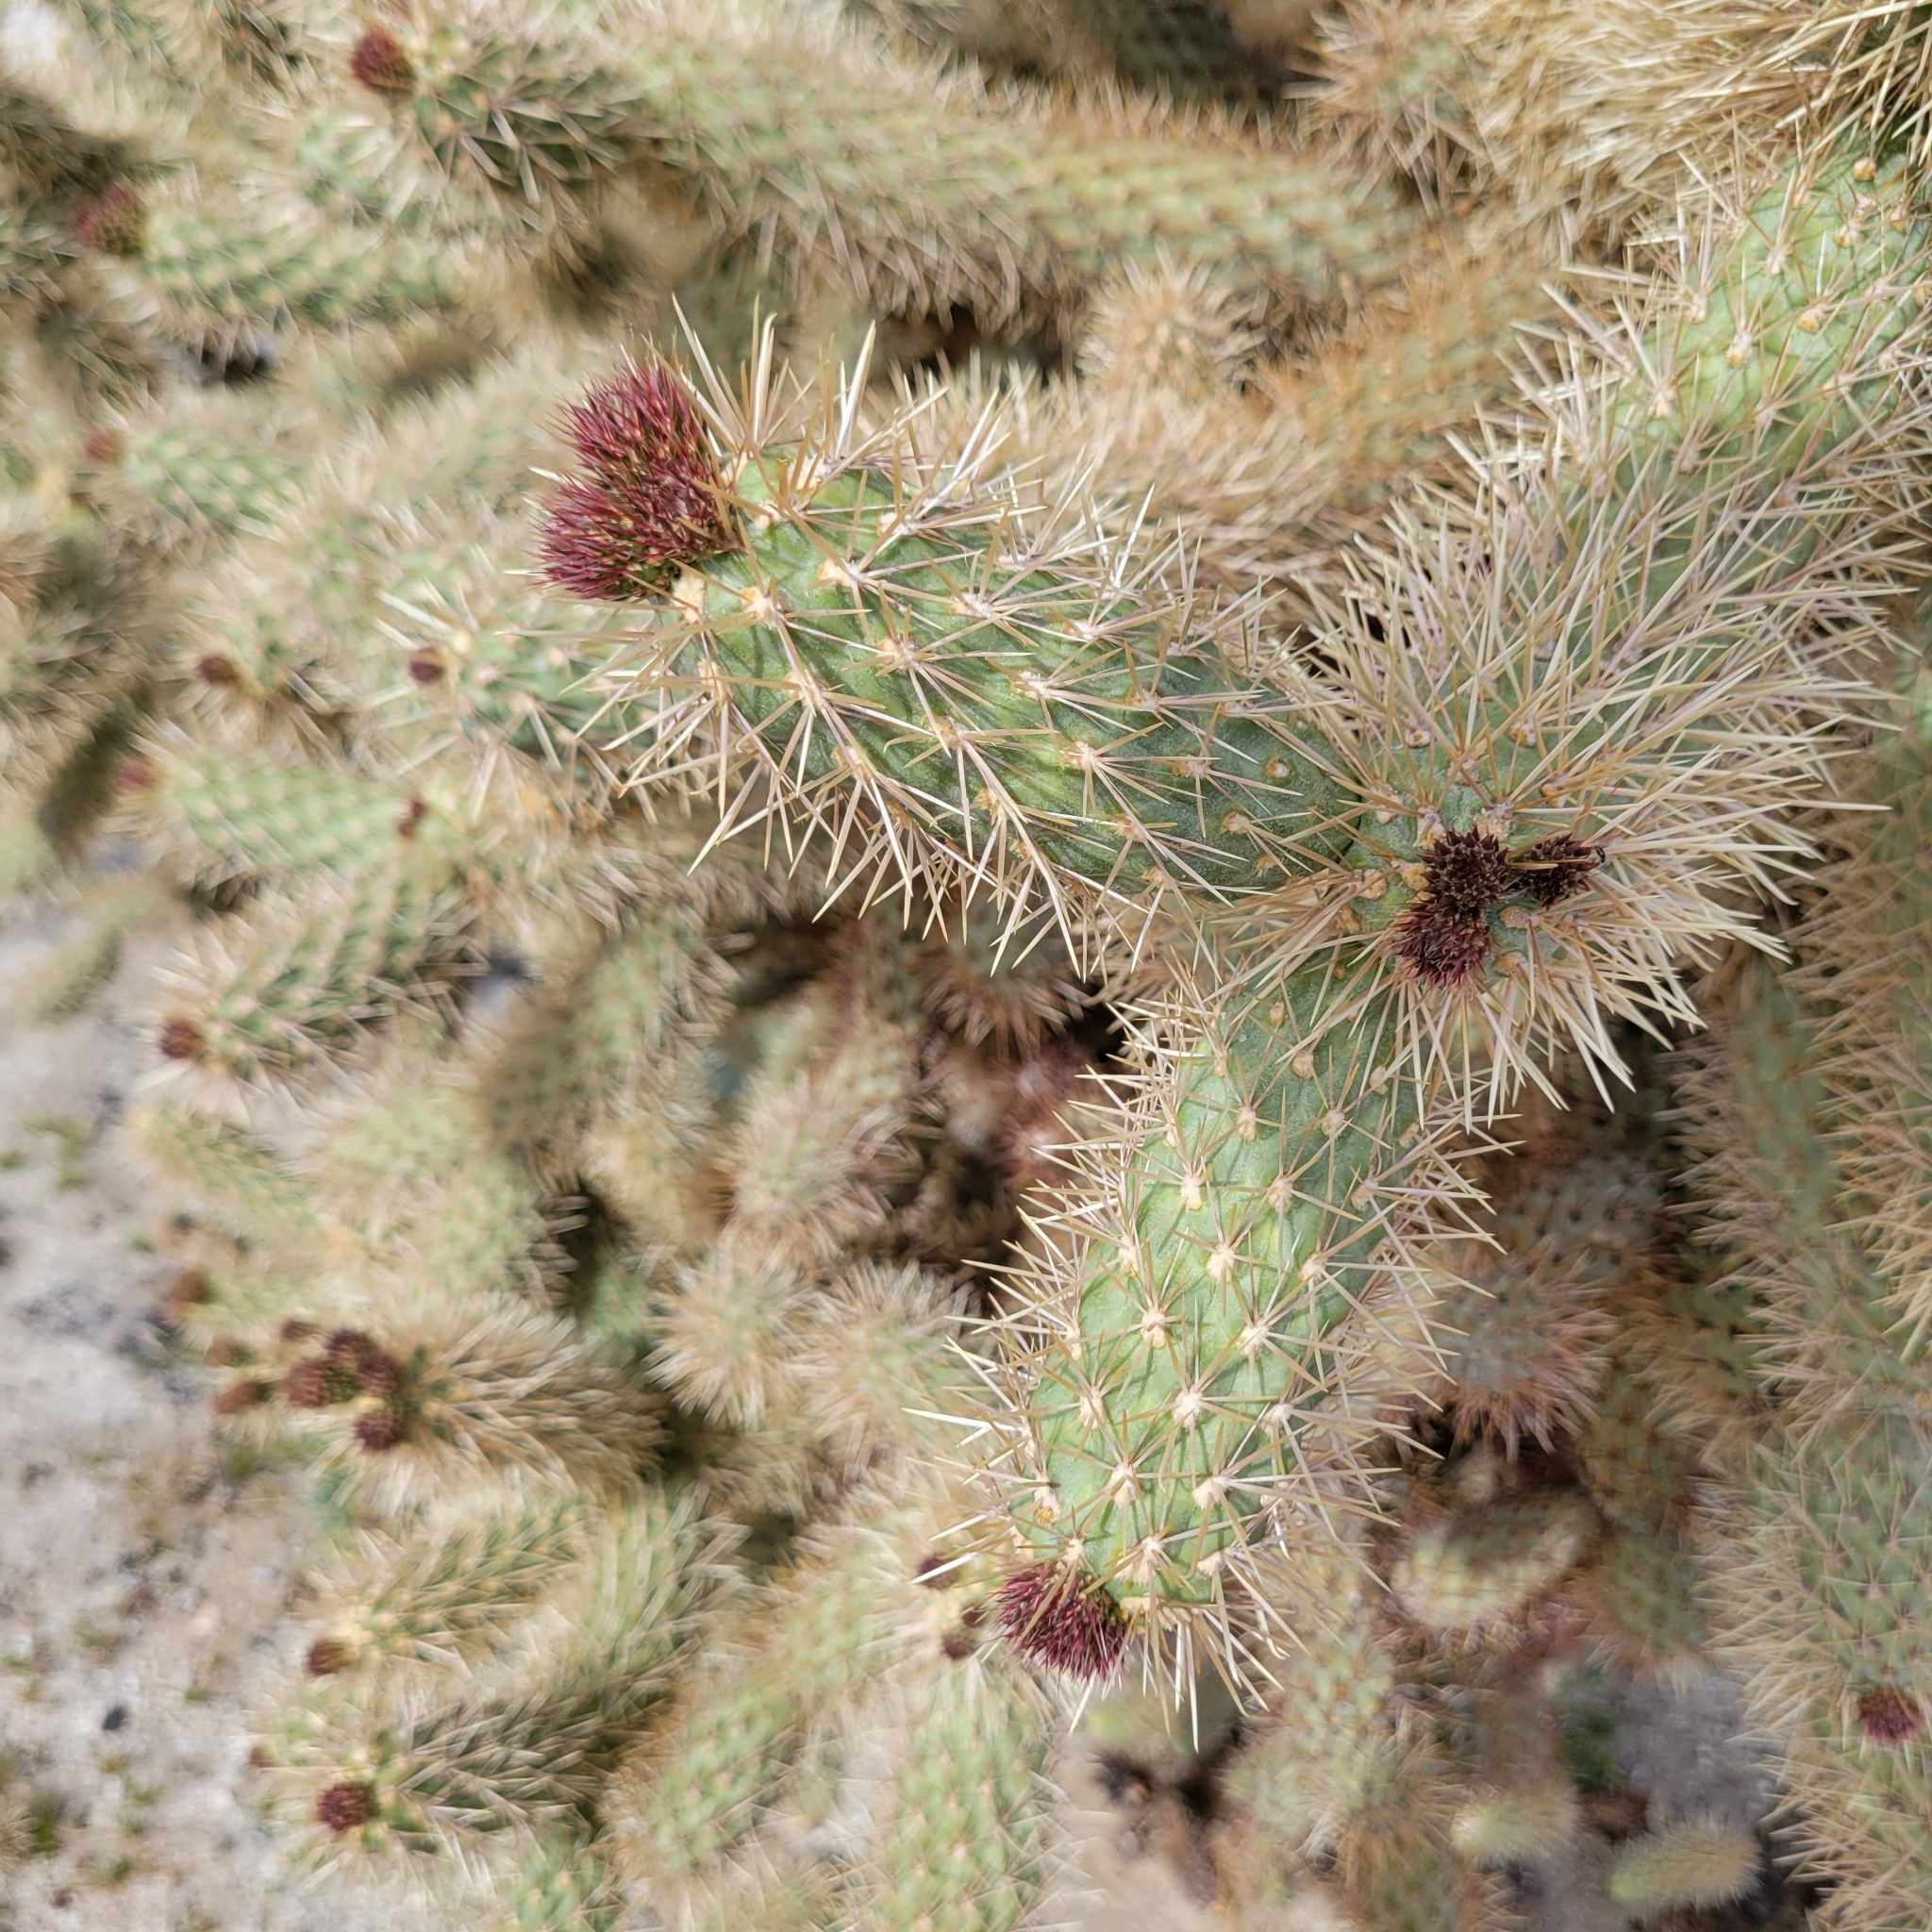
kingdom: Plantae
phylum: Tracheophyta
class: Magnoliopsida
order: Caryophyllales
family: Cactaceae
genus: Cylindropuntia
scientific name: Cylindropuntia fosbergii
